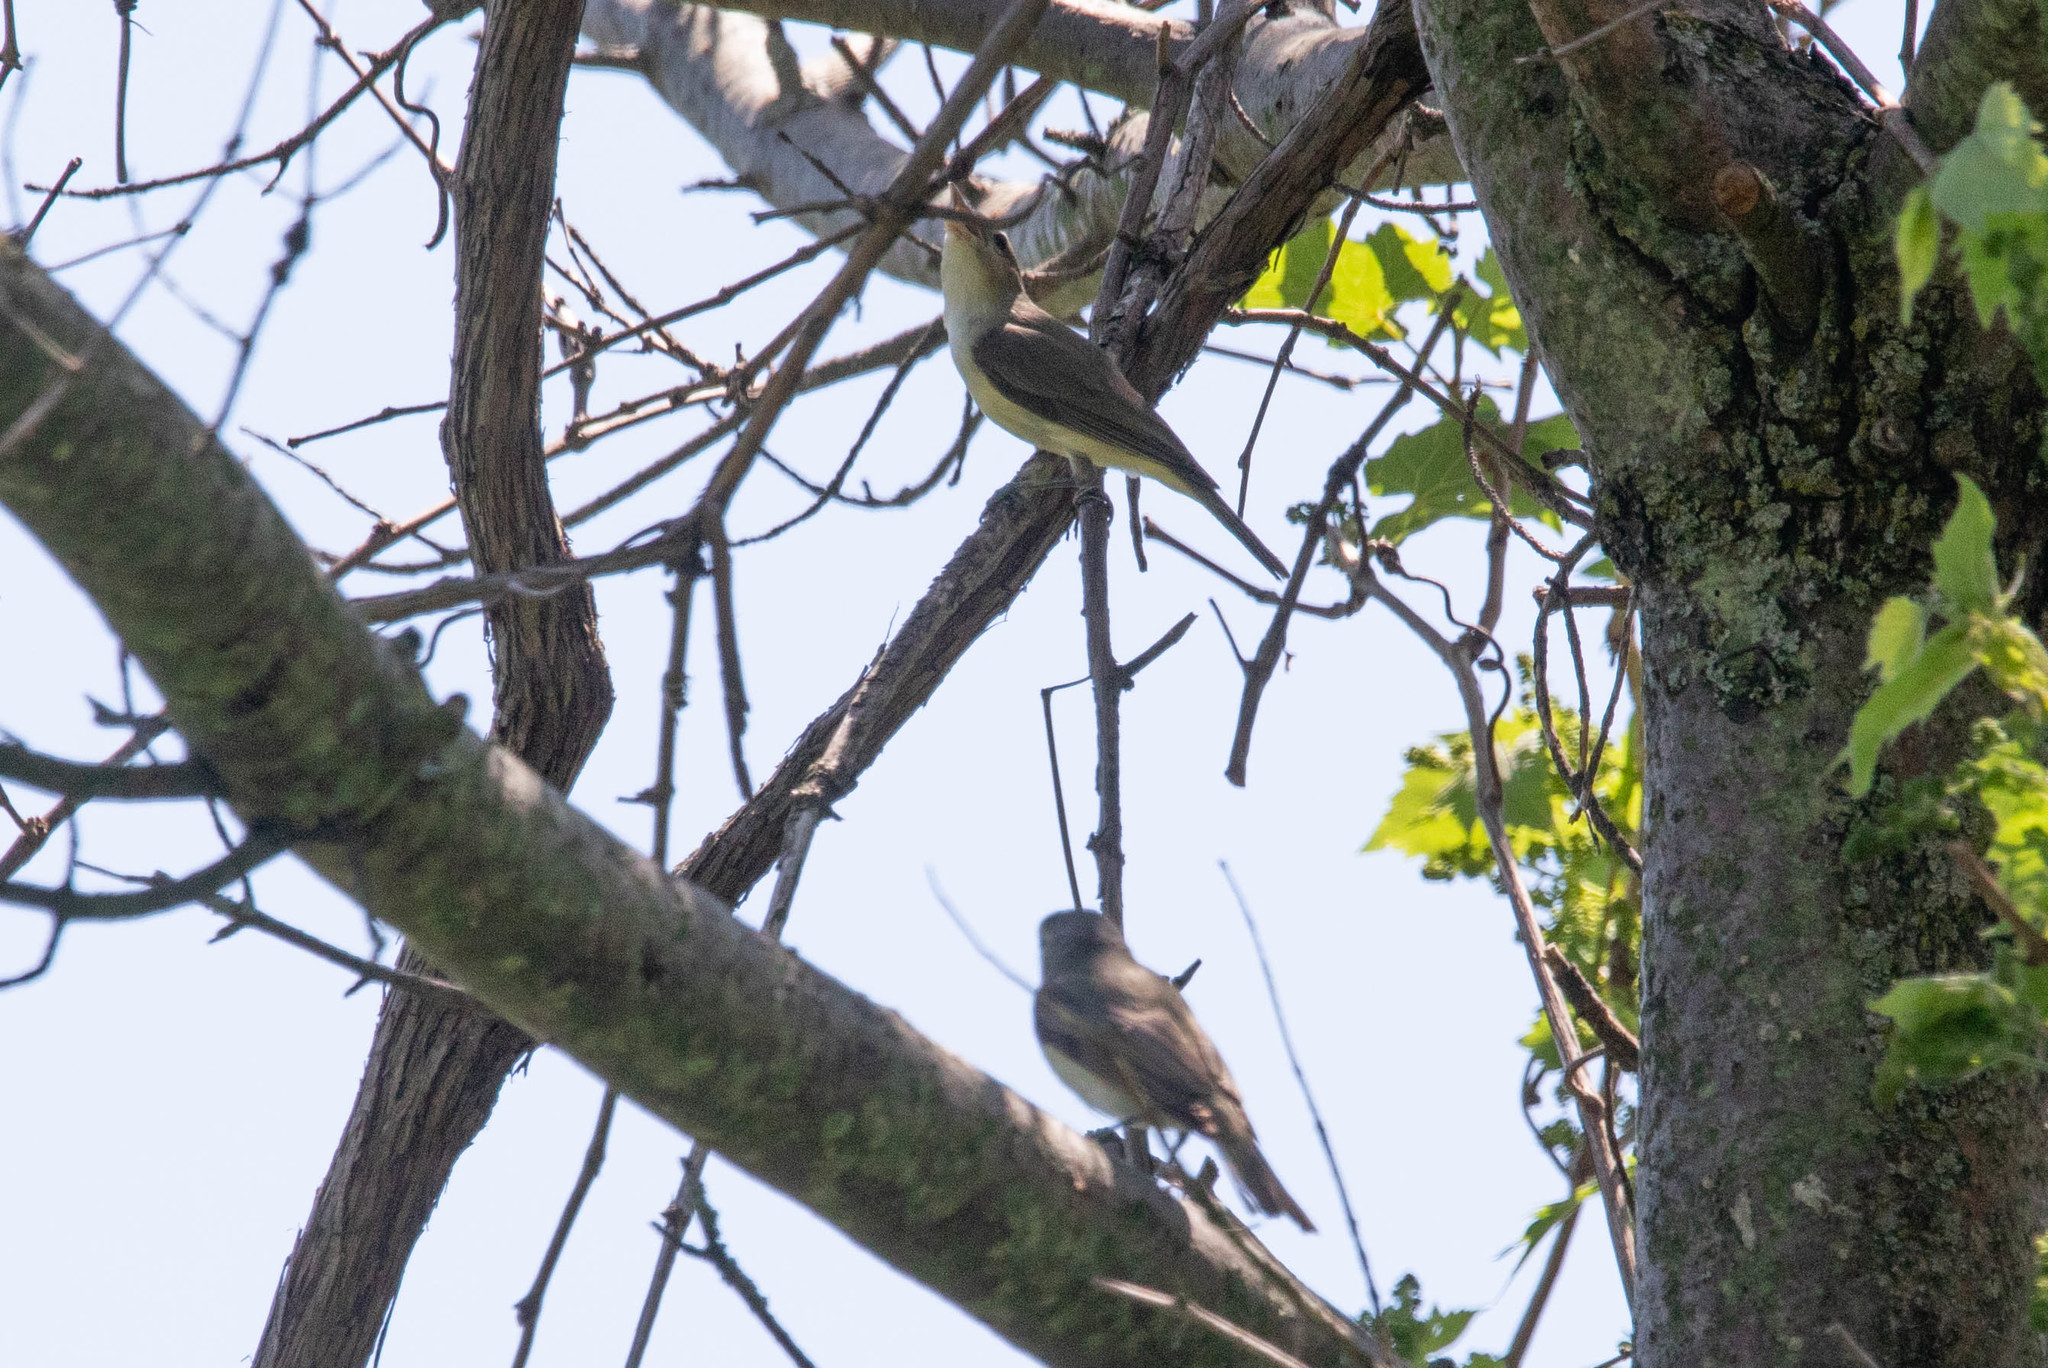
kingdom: Animalia
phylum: Chordata
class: Aves
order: Passeriformes
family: Vireonidae
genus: Vireo
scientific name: Vireo gilvus
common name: Warbling vireo
